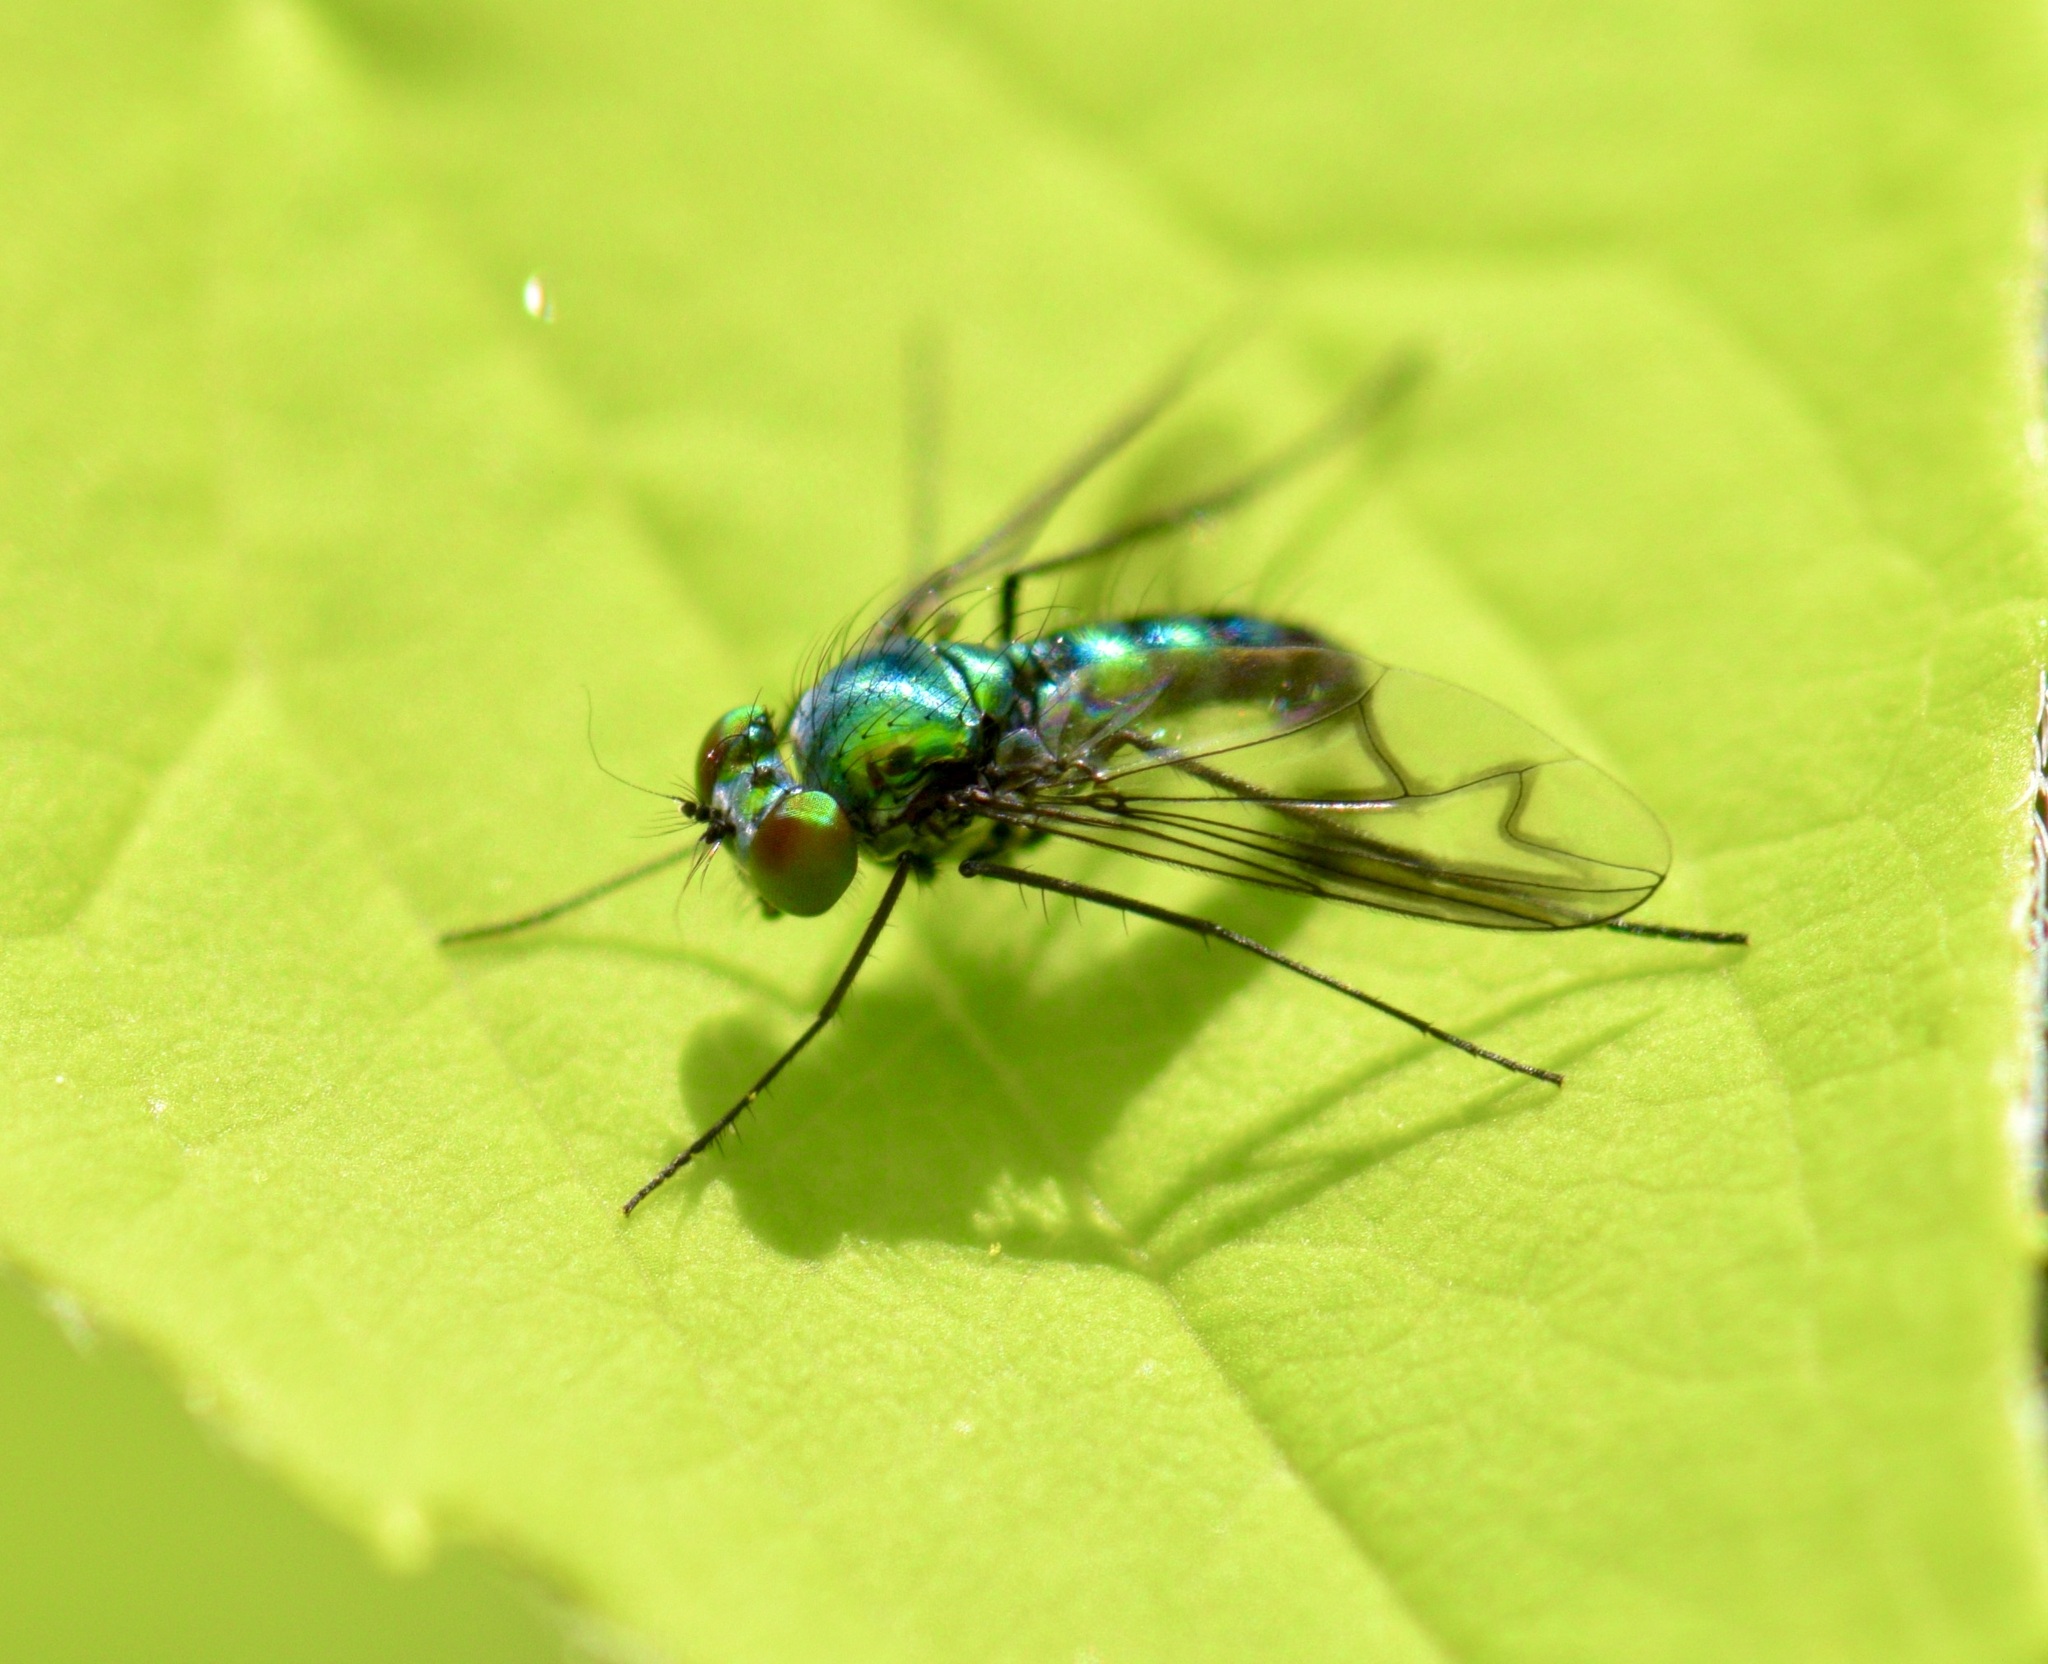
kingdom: Animalia
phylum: Arthropoda
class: Insecta
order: Diptera
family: Dolichopodidae
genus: Condylostylus
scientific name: Condylostylus patibulatus
